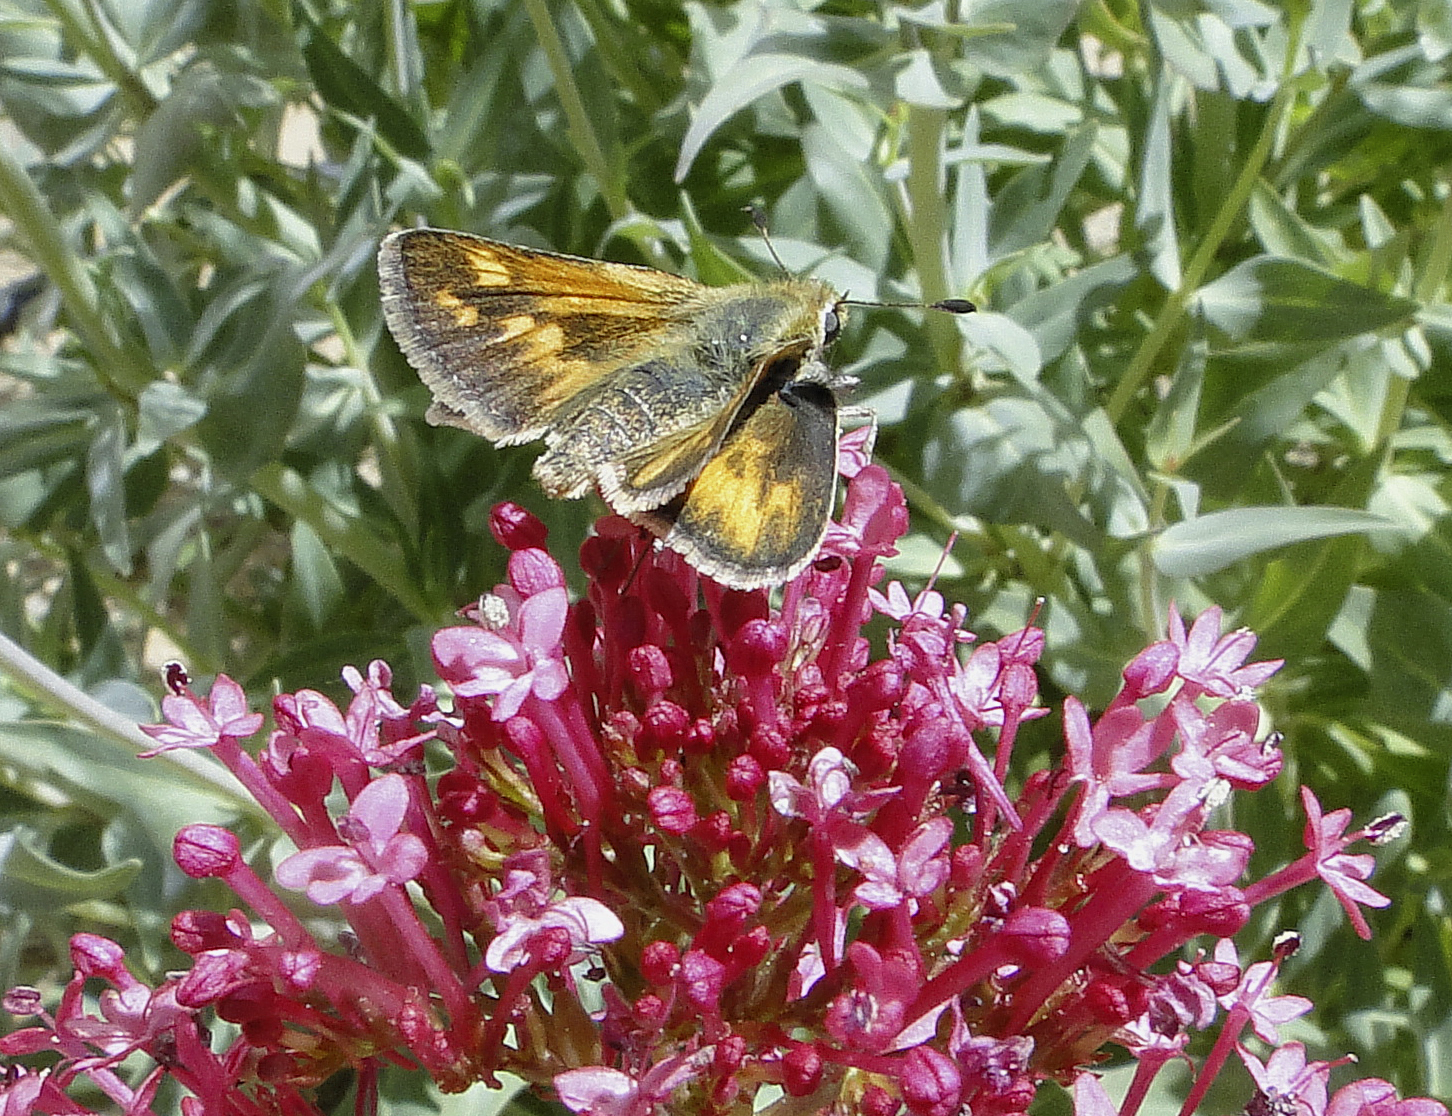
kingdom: Animalia
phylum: Arthropoda
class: Insecta
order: Lepidoptera
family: Hesperiidae
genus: Polites
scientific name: Polites sabuleti
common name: Sandhill skipper
